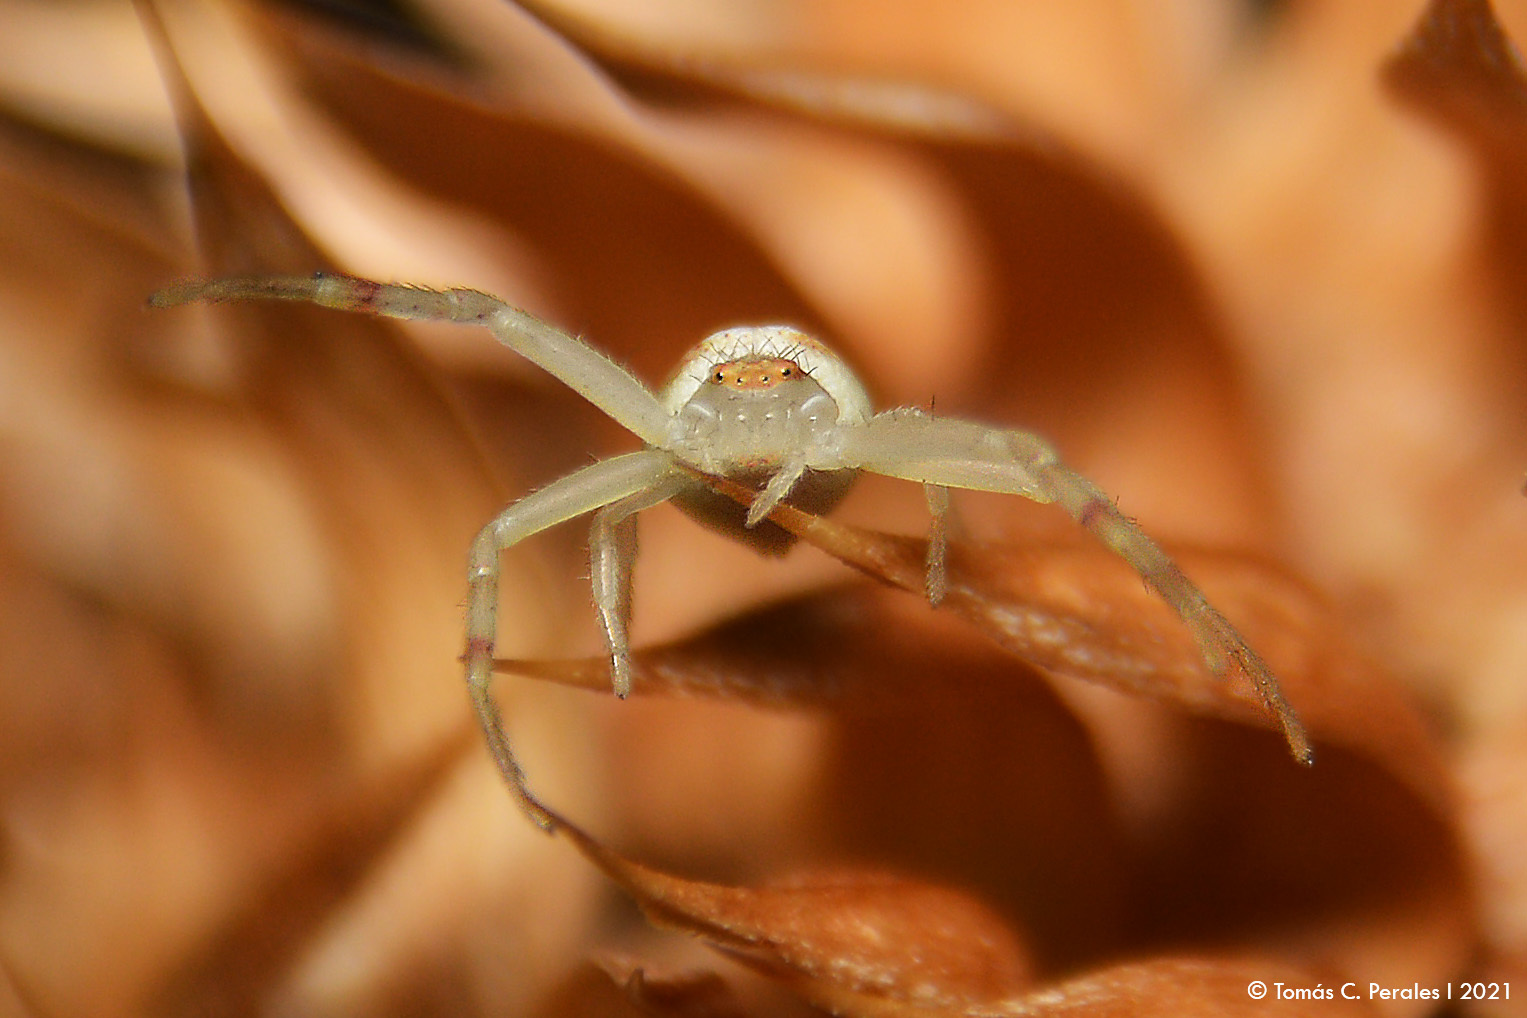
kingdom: Animalia
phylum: Arthropoda
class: Arachnida
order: Araneae
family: Thomisidae
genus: Misumenops
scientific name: Misumenops
